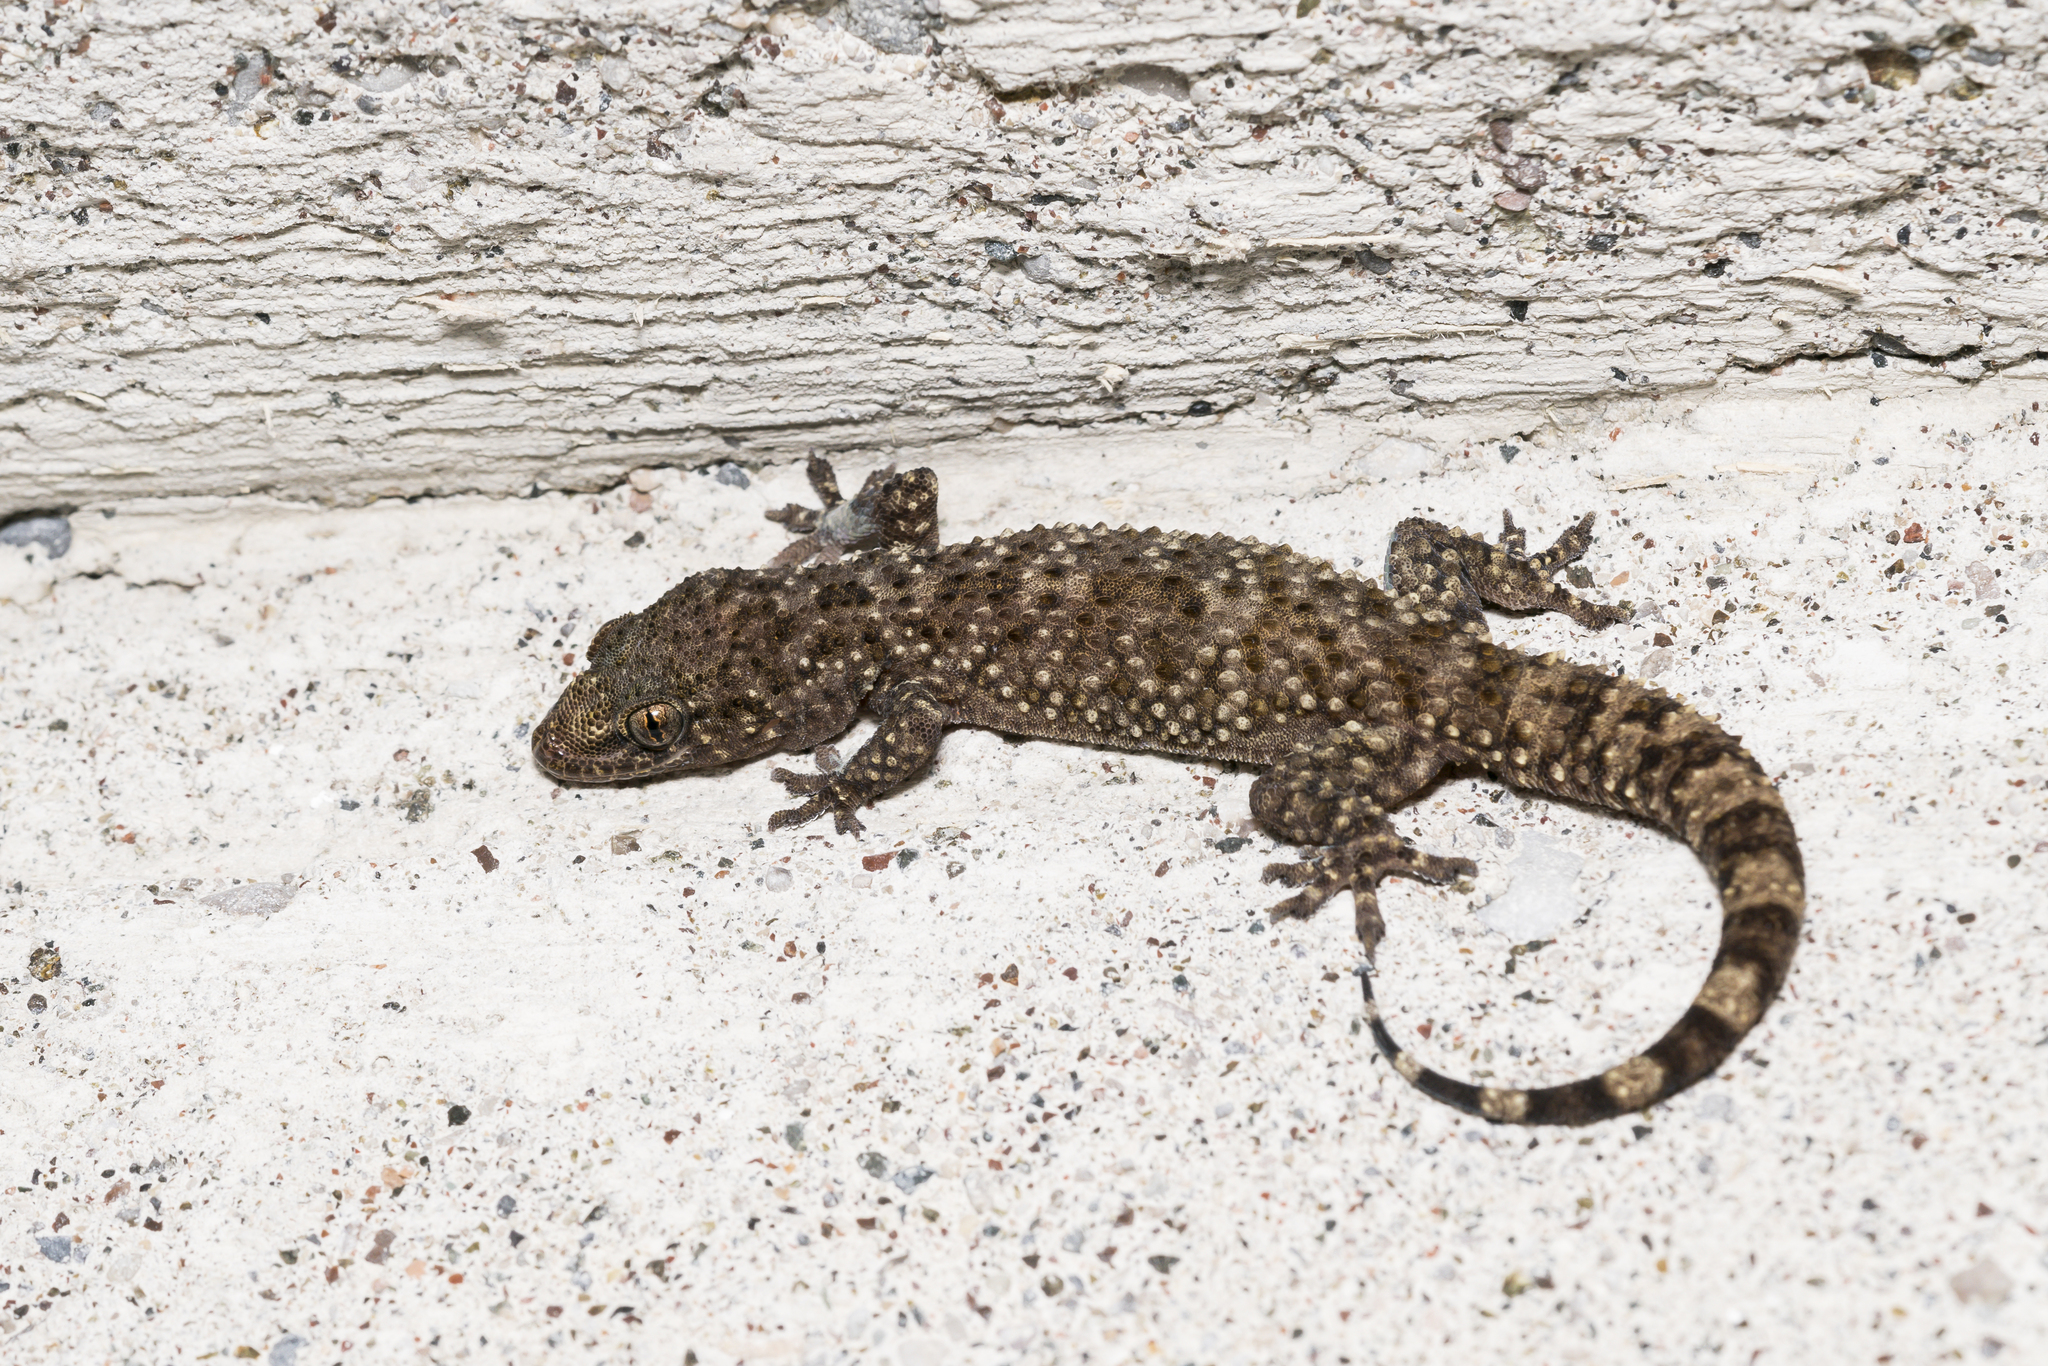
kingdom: Animalia
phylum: Chordata
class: Squamata
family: Gekkonidae
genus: Hemidactylus
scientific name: Hemidactylus turcicus
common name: Turkish gecko
